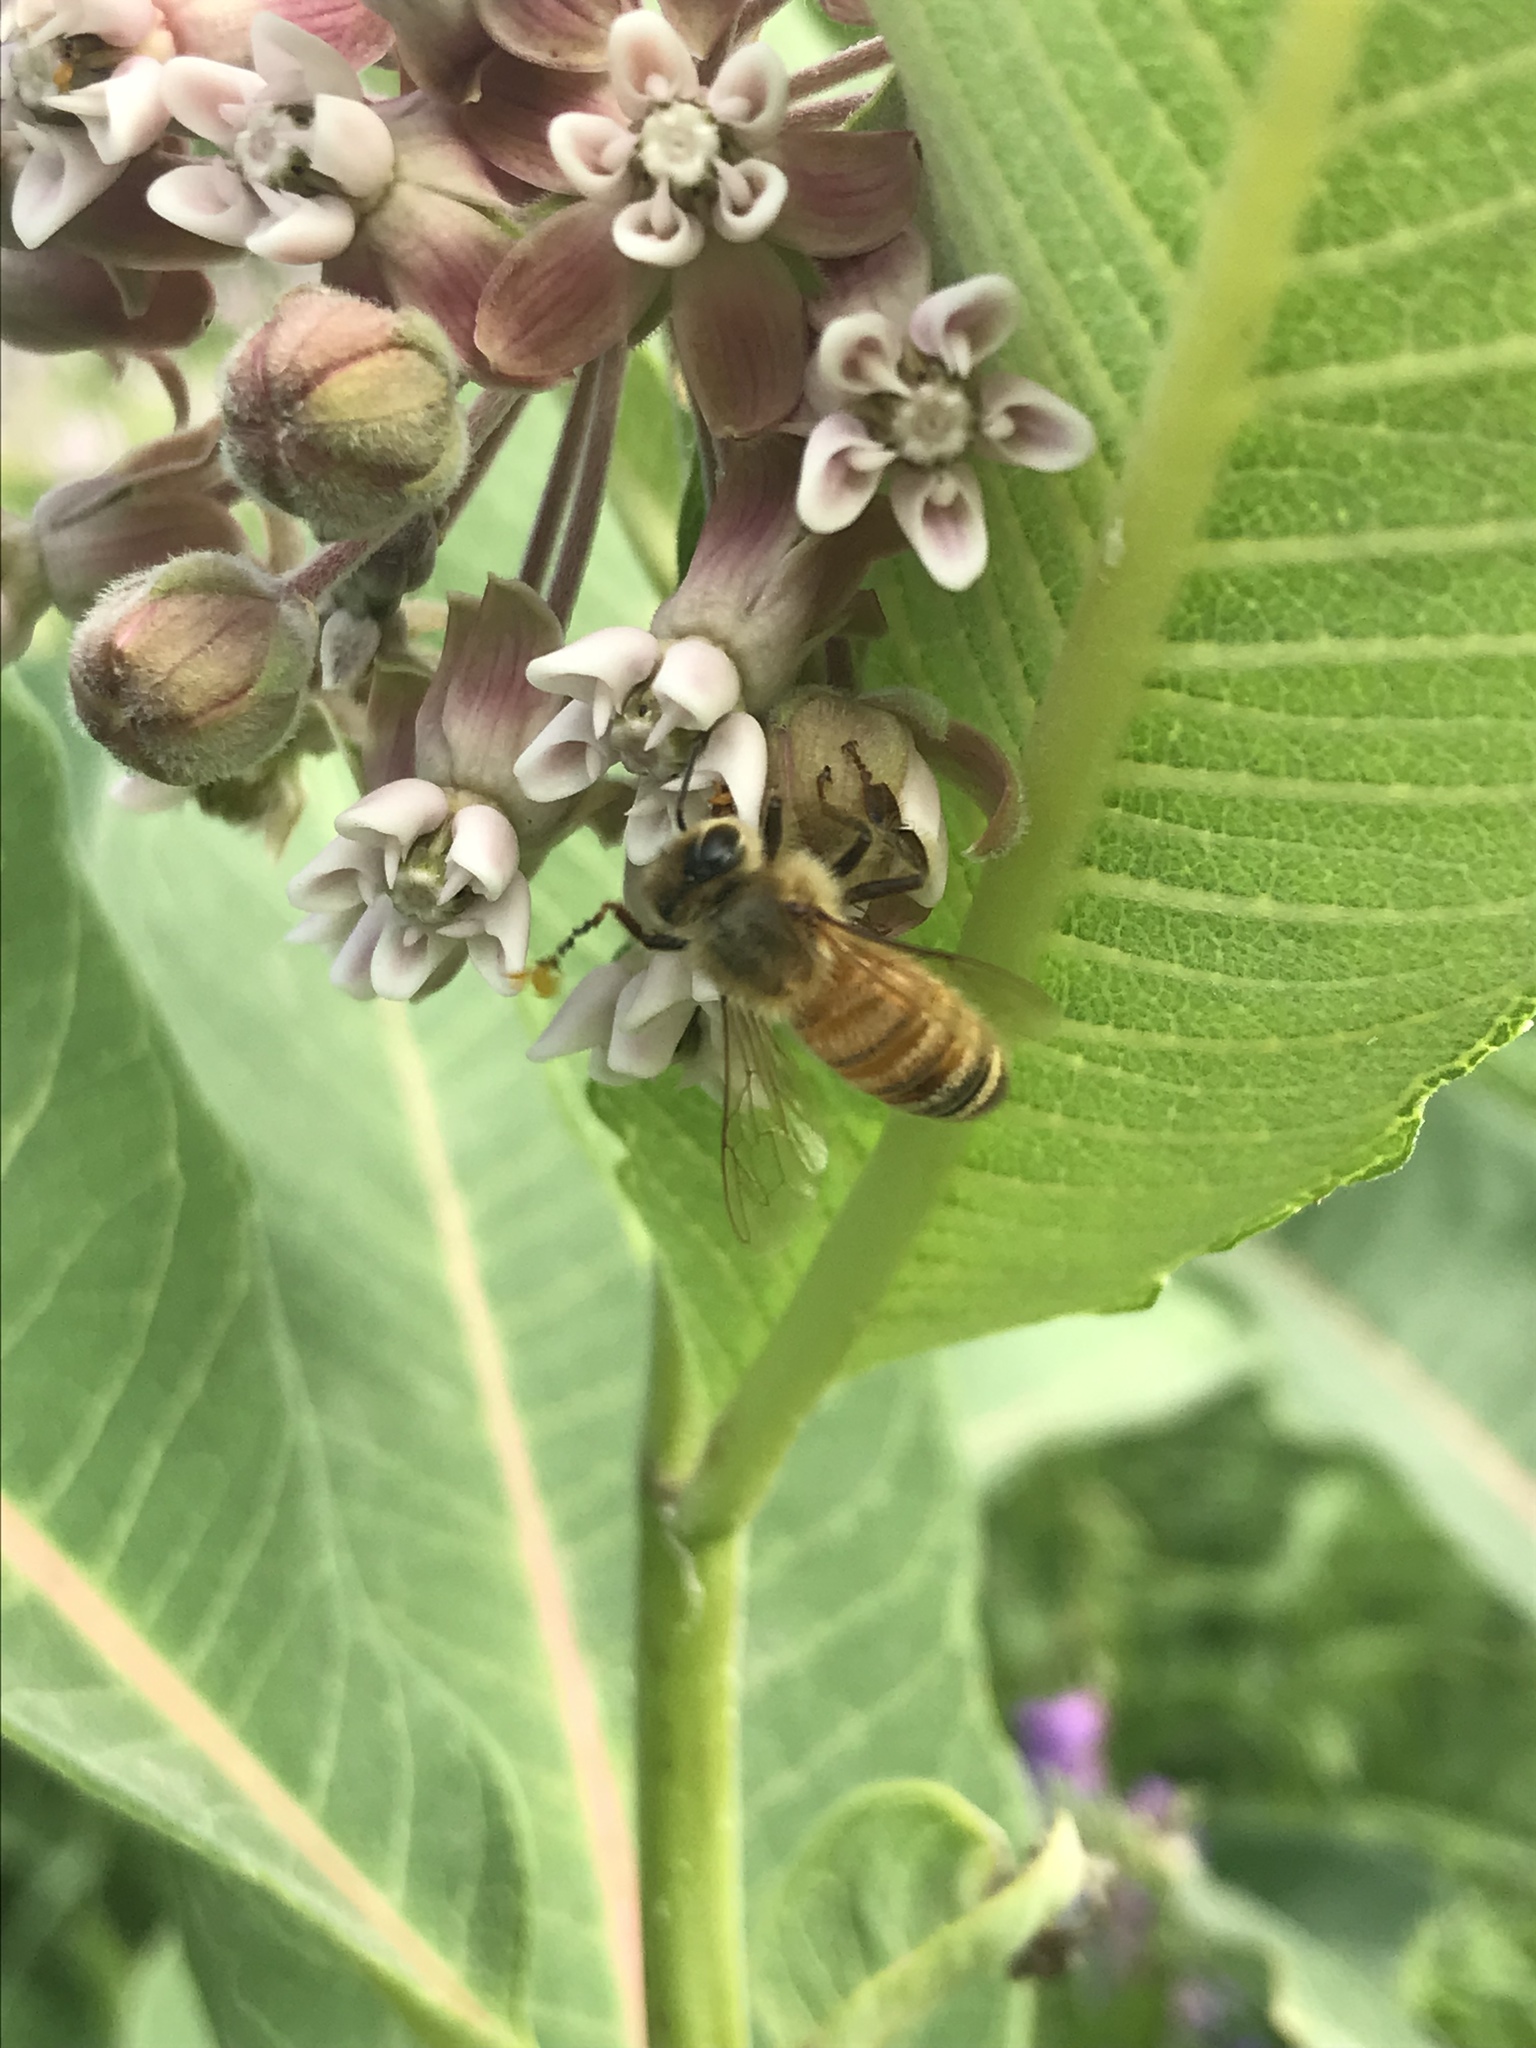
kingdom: Animalia
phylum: Arthropoda
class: Insecta
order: Hymenoptera
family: Apidae
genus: Apis
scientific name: Apis mellifera
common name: Honey bee
